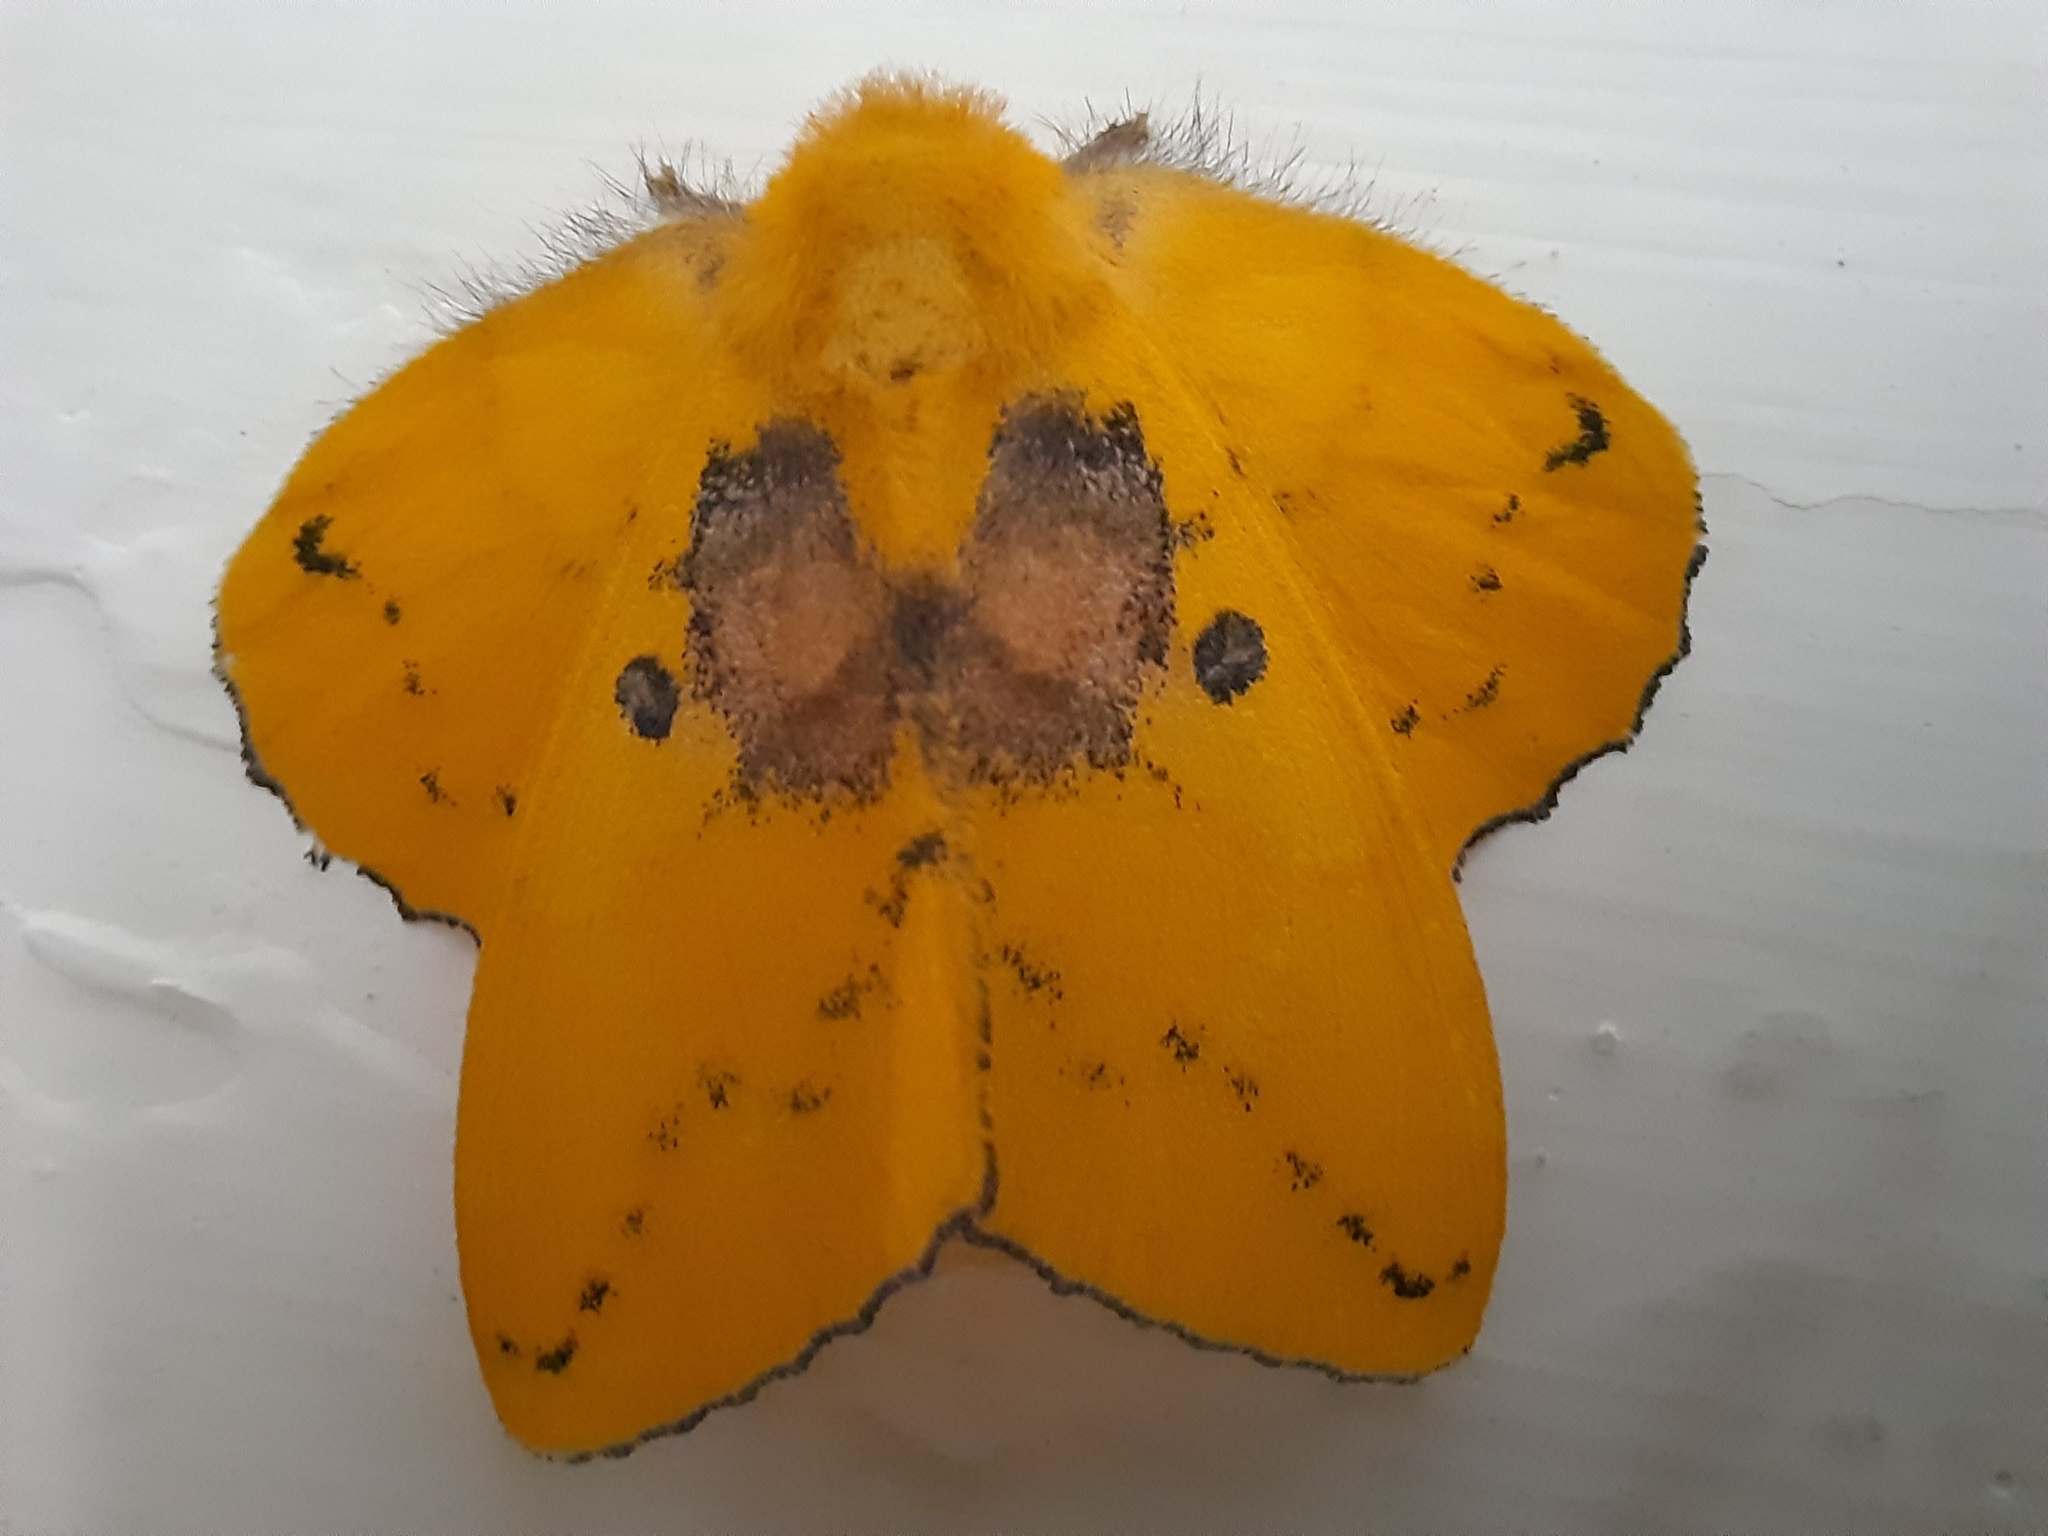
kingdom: Animalia
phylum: Arthropoda
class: Insecta
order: Lepidoptera
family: Lasiocampidae
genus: Trabala
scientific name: Trabala vishnou
